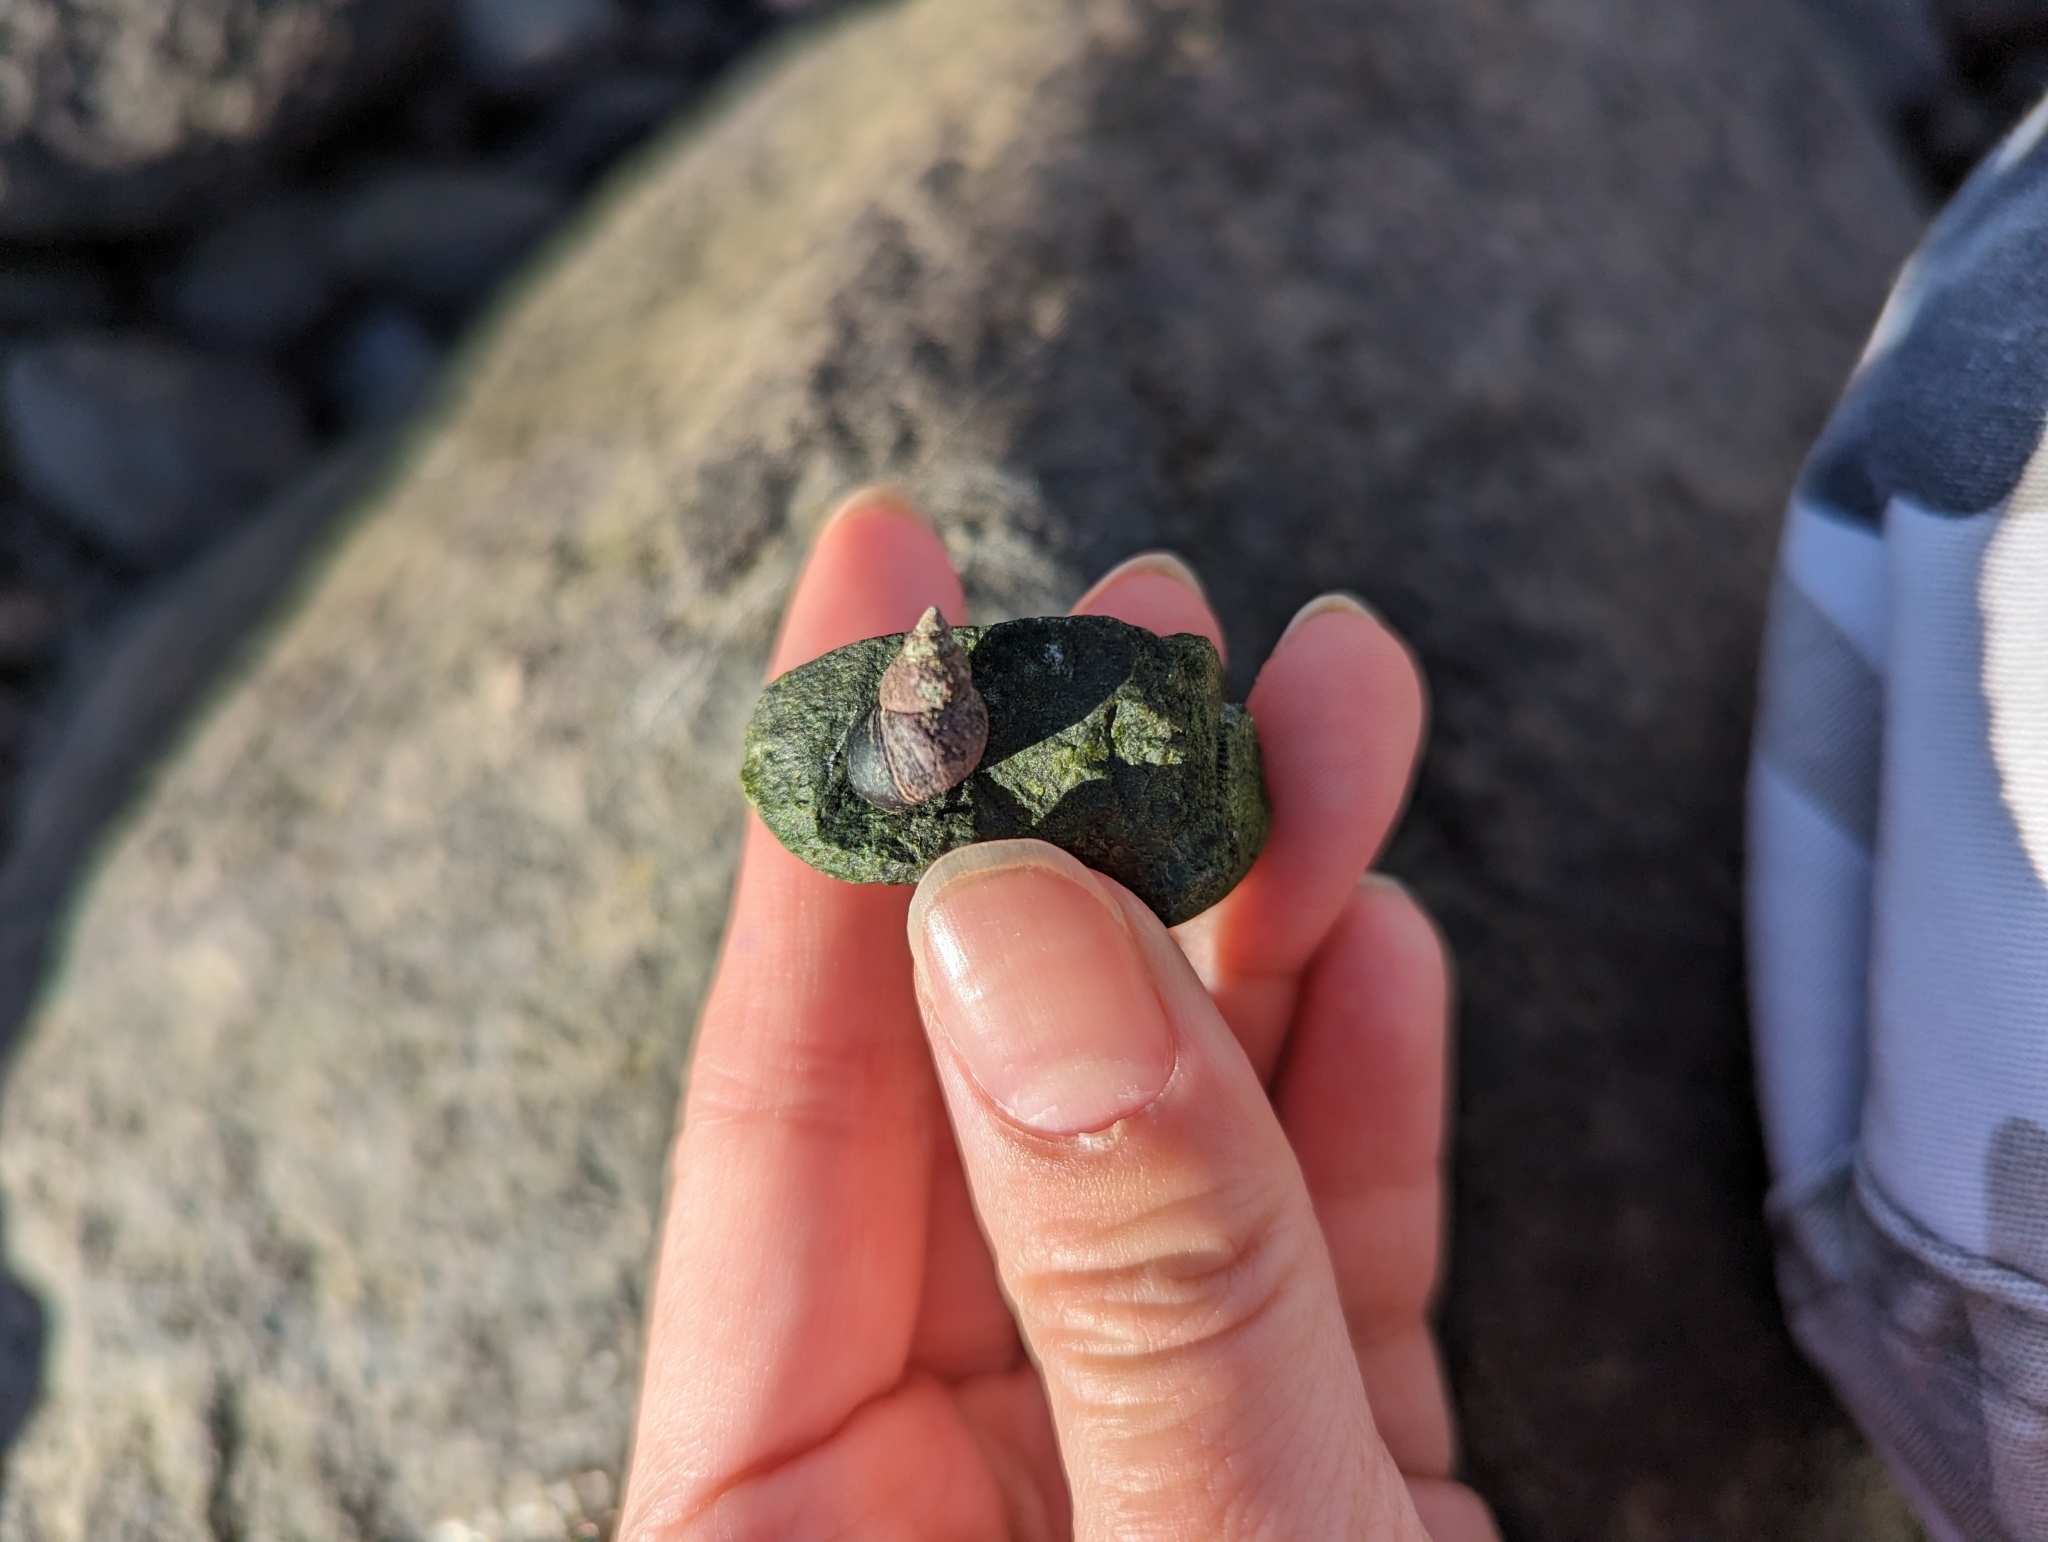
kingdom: Animalia
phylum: Mollusca
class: Gastropoda
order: Littorinimorpha
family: Littorinidae
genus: Littorina
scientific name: Littorina scutulata
